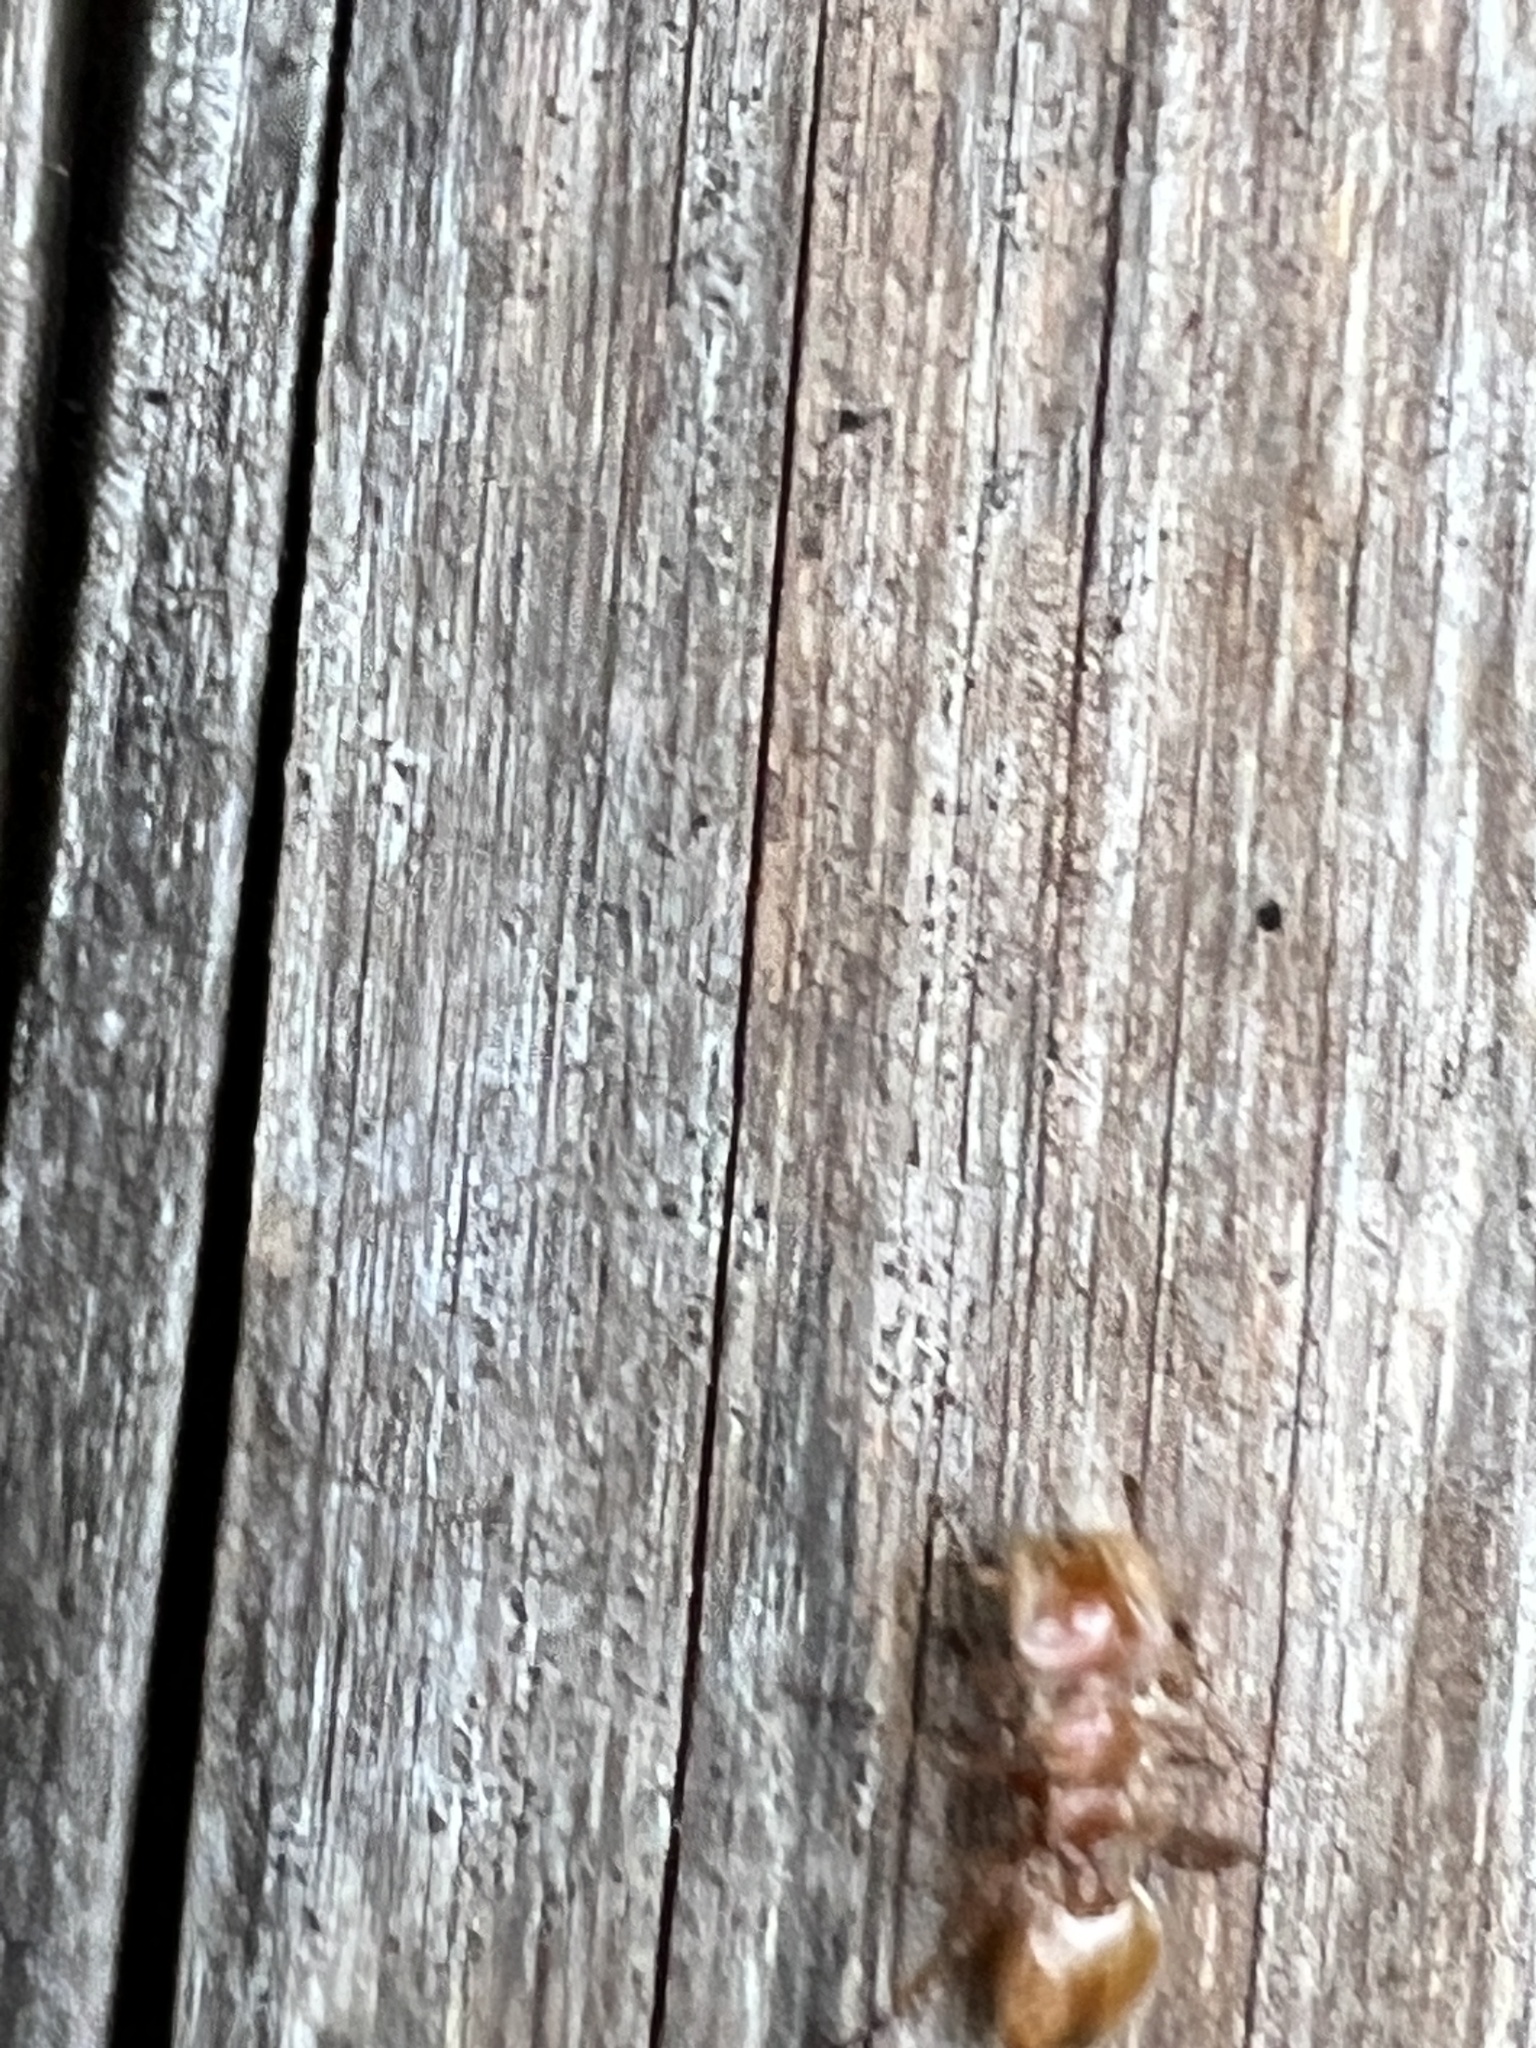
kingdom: Animalia
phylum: Arthropoda
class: Insecta
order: Hymenoptera
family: Formicidae
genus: Cephalotes
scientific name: Cephalotes clypeatus
